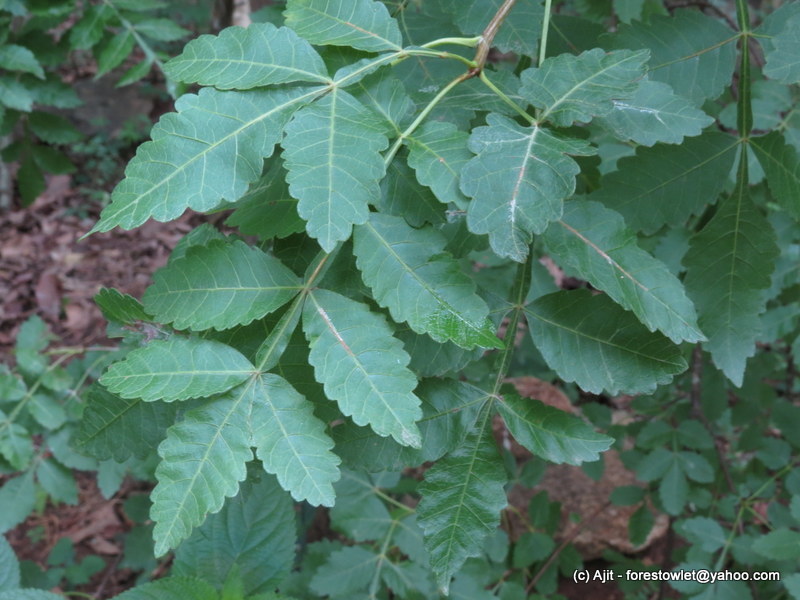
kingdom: Plantae
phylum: Tracheophyta
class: Magnoliopsida
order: Sapindales
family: Burseraceae
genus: Bursera
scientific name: Bursera penicillata
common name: Indian-lavender
